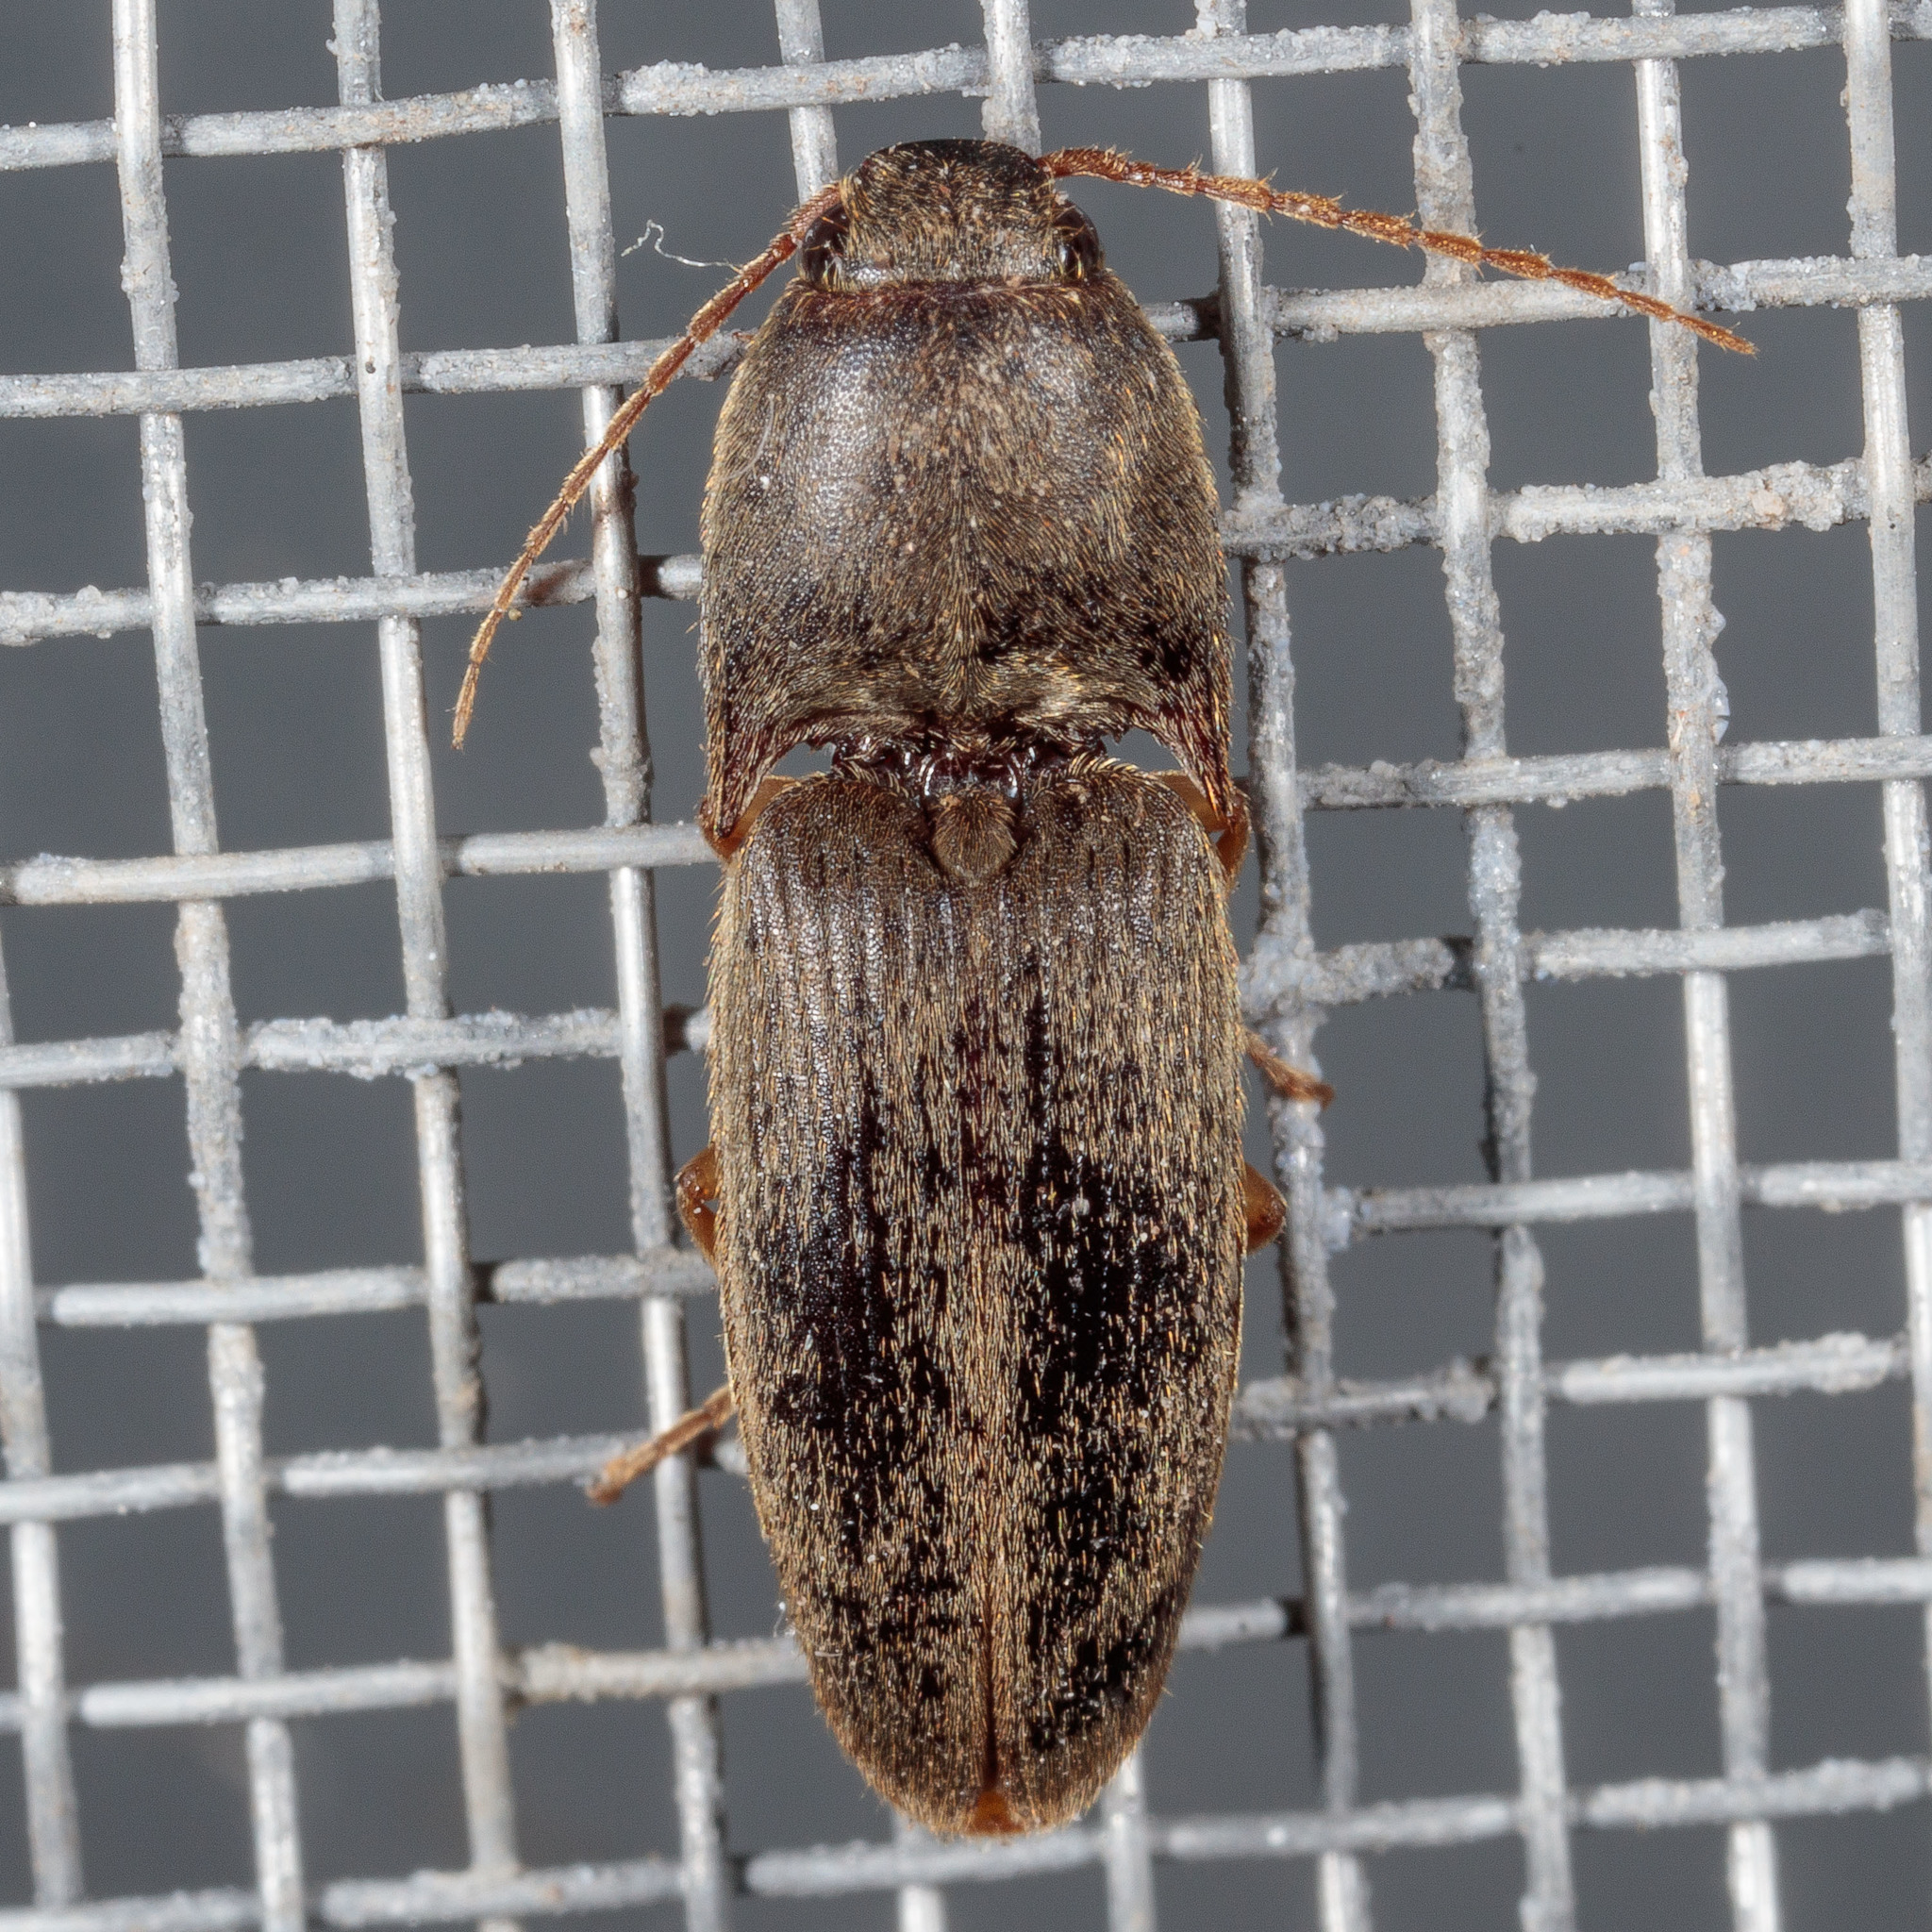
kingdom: Animalia
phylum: Arthropoda
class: Insecta
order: Coleoptera
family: Elateridae
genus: Conoderus
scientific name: Conoderus exsul
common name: Click beetle
